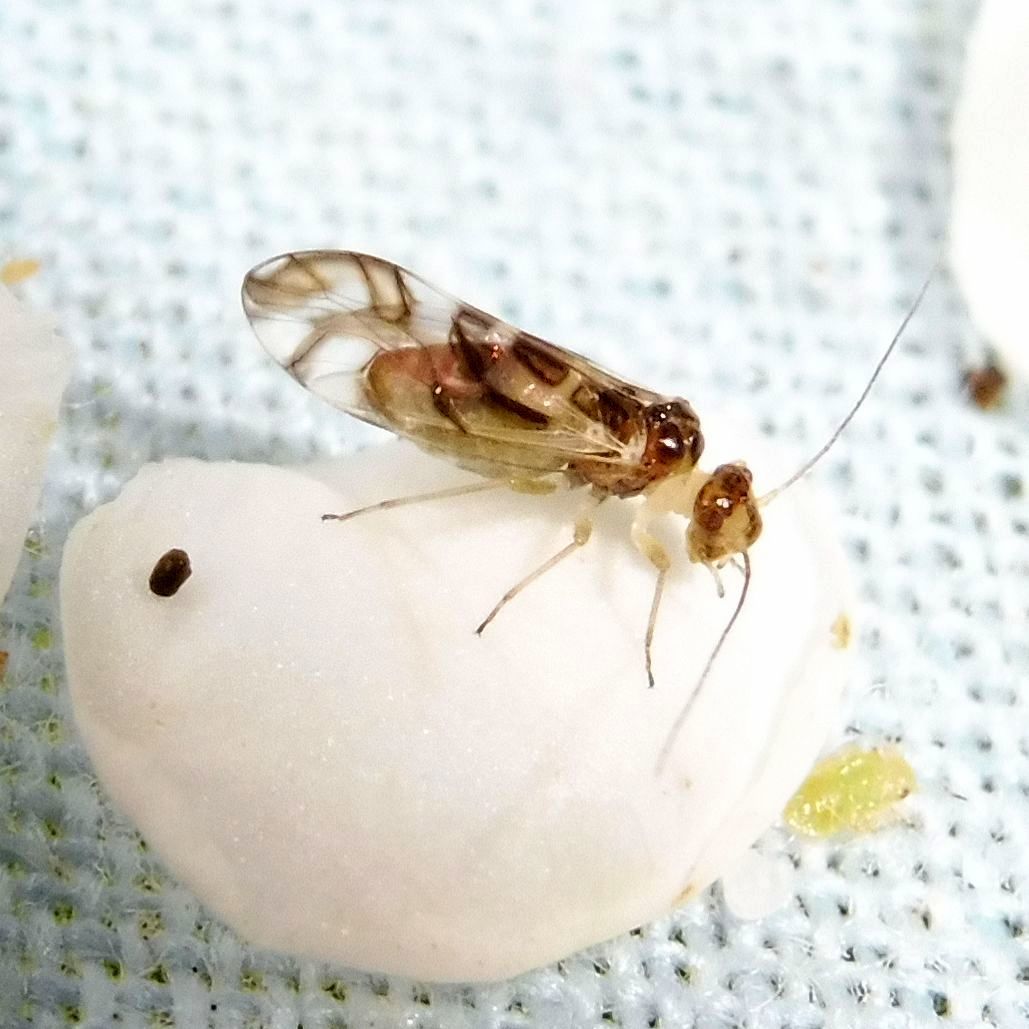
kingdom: Animalia
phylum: Arthropoda
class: Insecta
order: Psocodea
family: Stenopsocidae
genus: Graphopsocus
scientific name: Graphopsocus cruciatus
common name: Lizard bark louse
